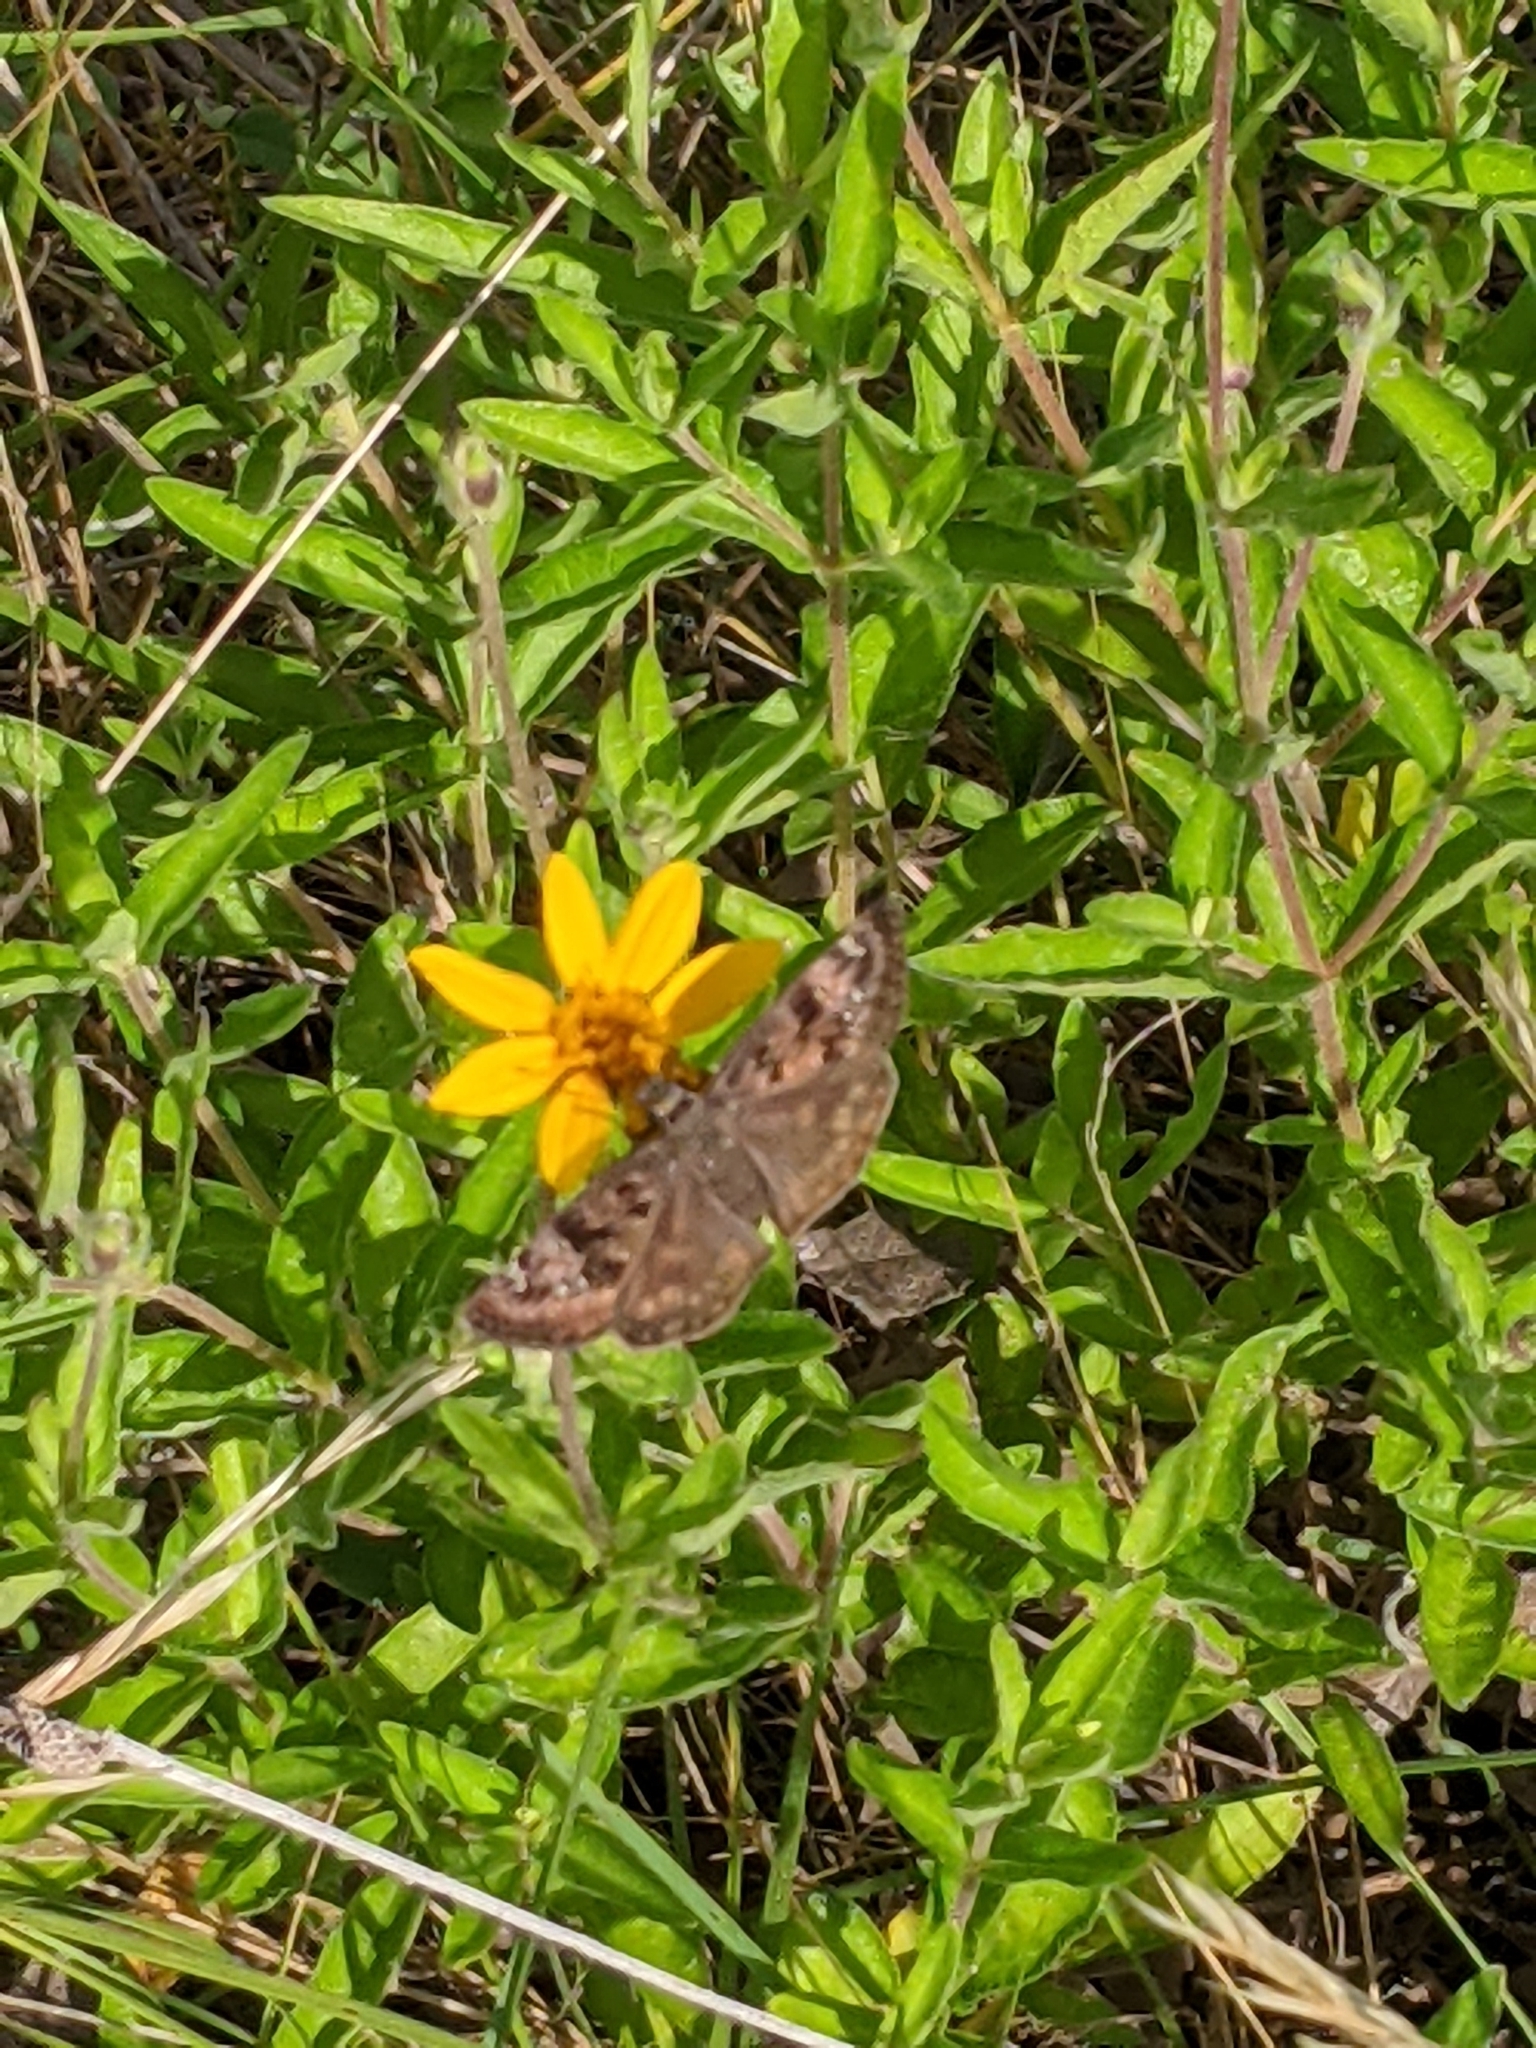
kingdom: Animalia
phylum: Arthropoda
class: Insecta
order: Lepidoptera
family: Hesperiidae
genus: Erynnis
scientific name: Erynnis horatius
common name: Horace's duskywing
